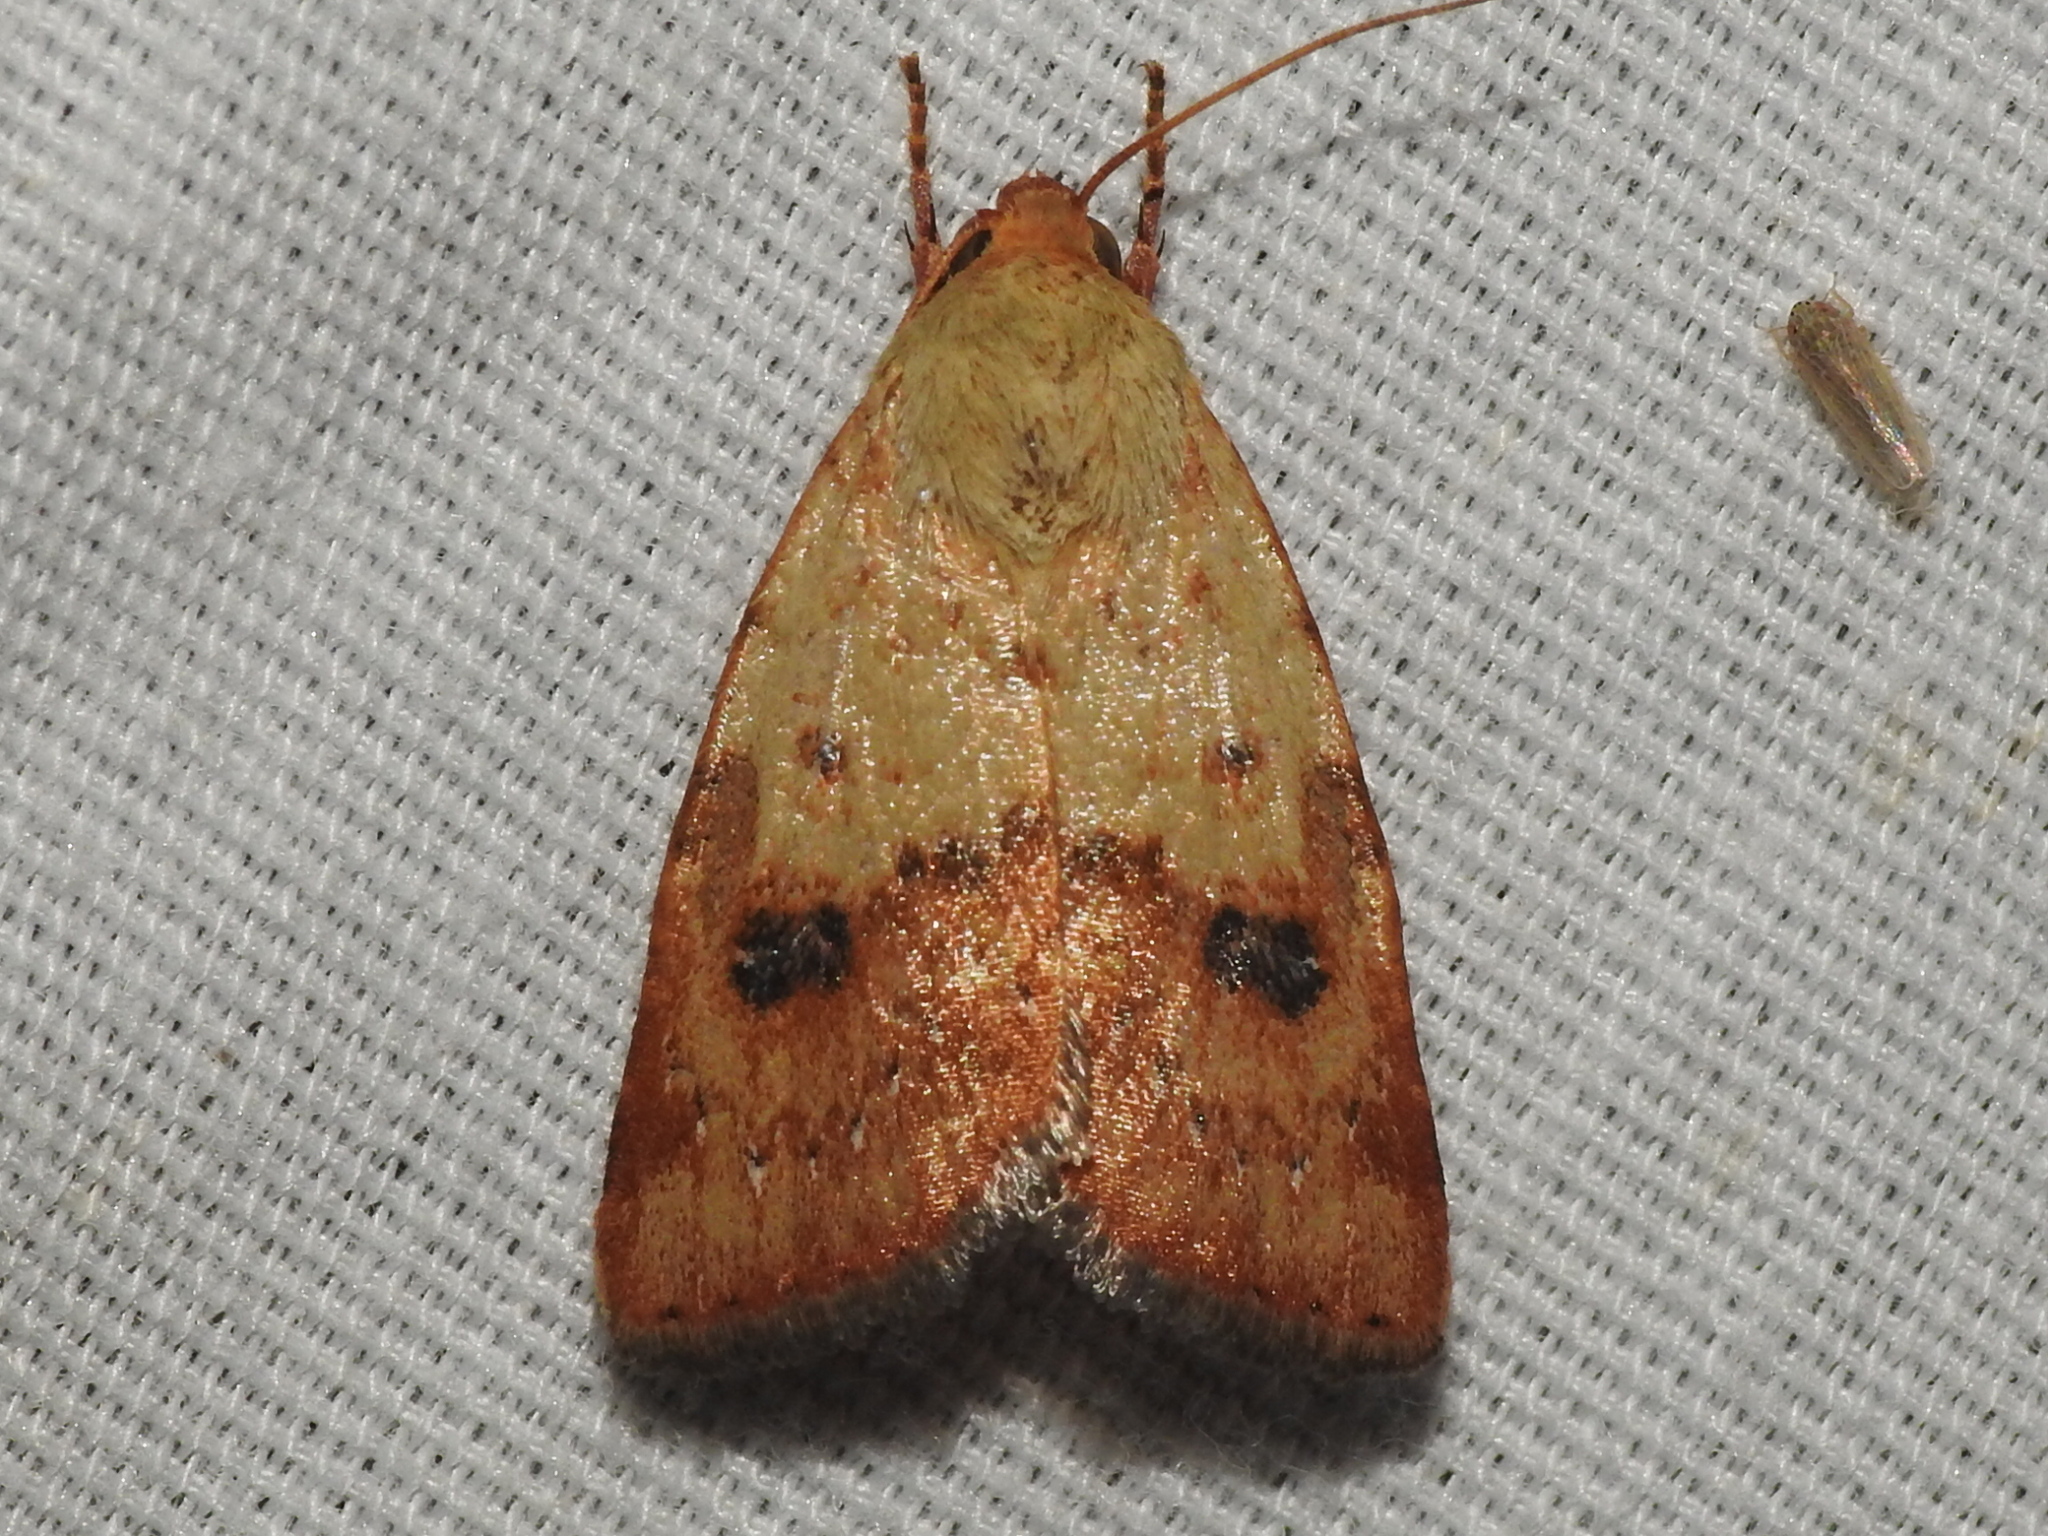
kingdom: Animalia
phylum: Arthropoda
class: Insecta
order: Lepidoptera
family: Noctuidae
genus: Heliocheilus
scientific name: Heliocheilus lupata
